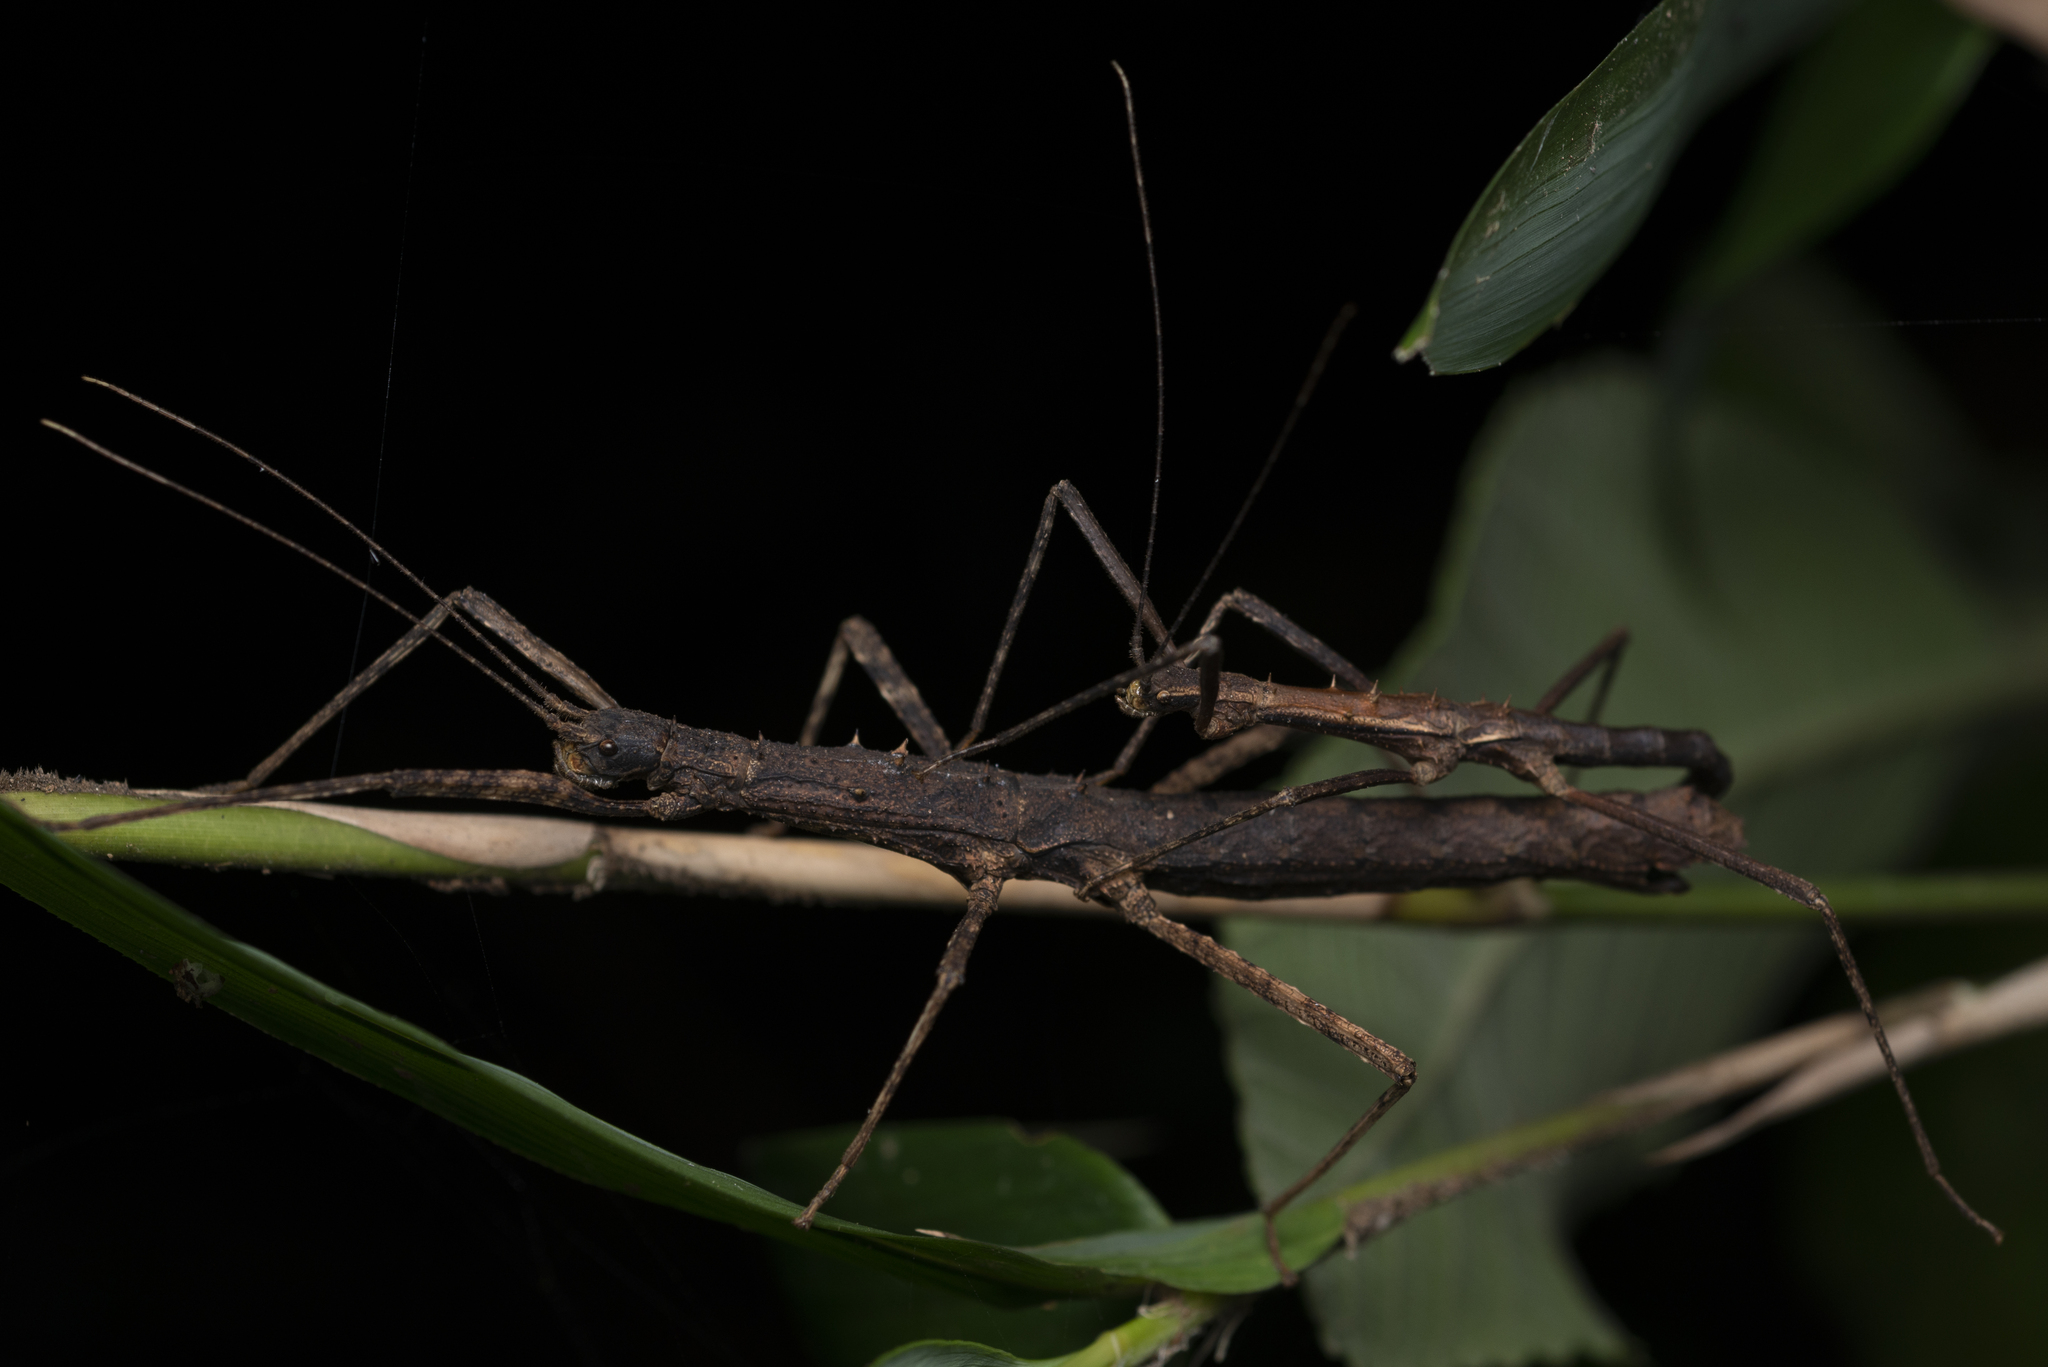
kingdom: Animalia
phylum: Arthropoda
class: Insecta
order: Phasmida
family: Lonchodidae
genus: Neohirasea
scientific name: Neohirasea hongkongensis
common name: Hong kong spiny stick insect
